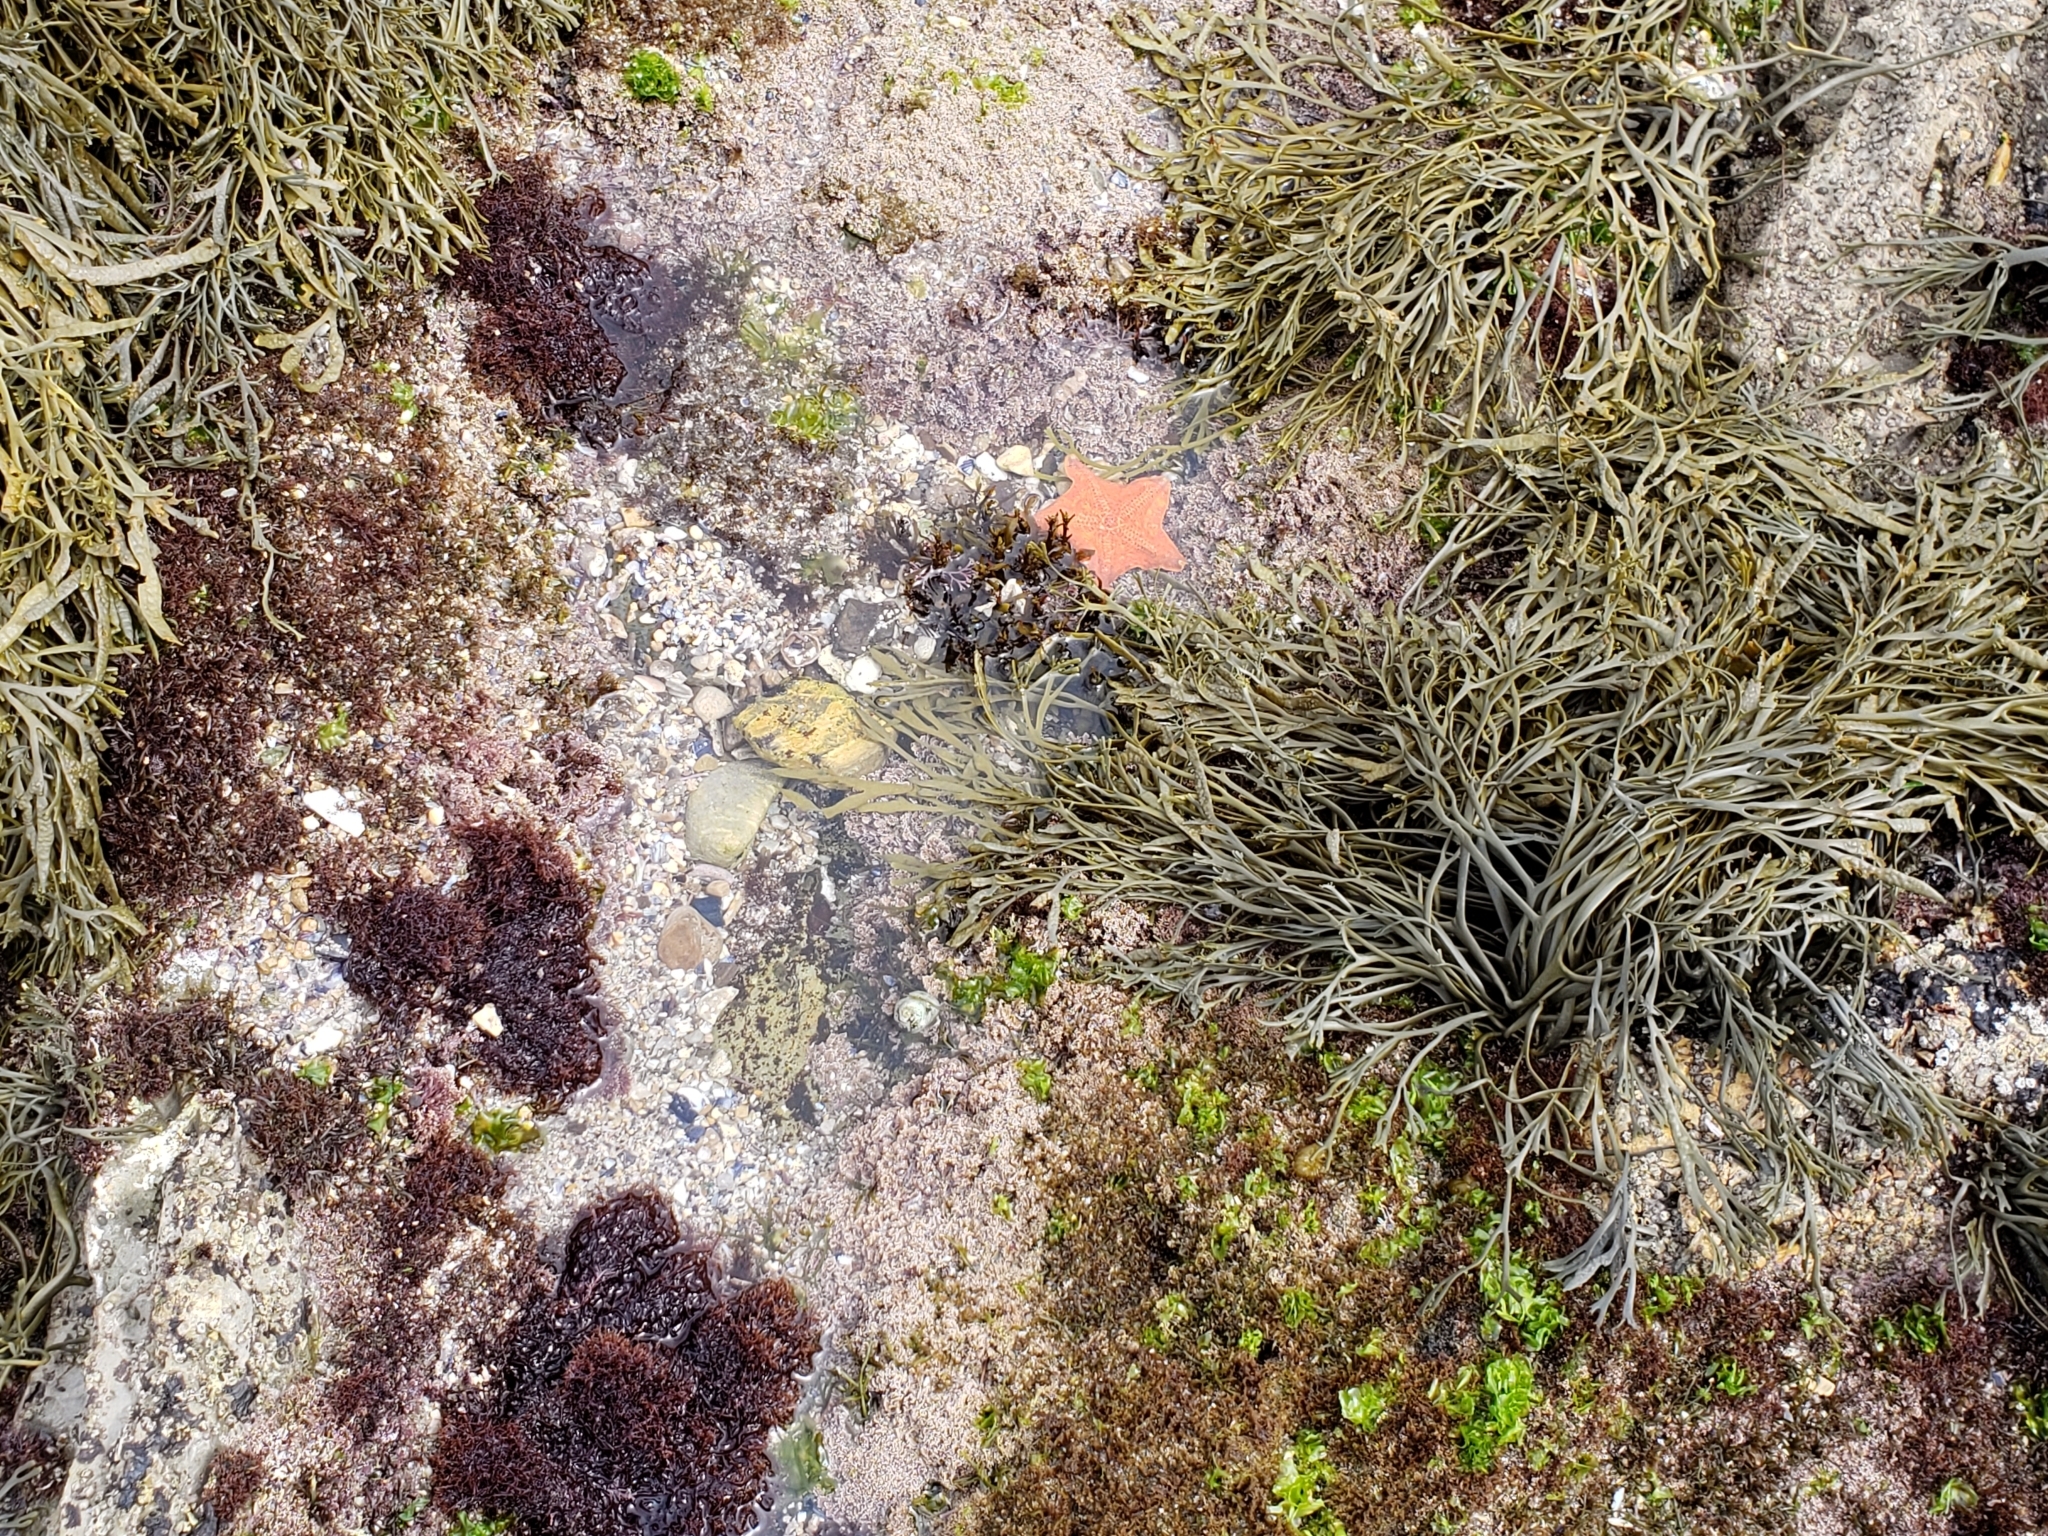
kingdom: Animalia
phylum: Echinodermata
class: Asteroidea
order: Valvatida
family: Asterinidae
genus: Patiria
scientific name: Patiria miniata
